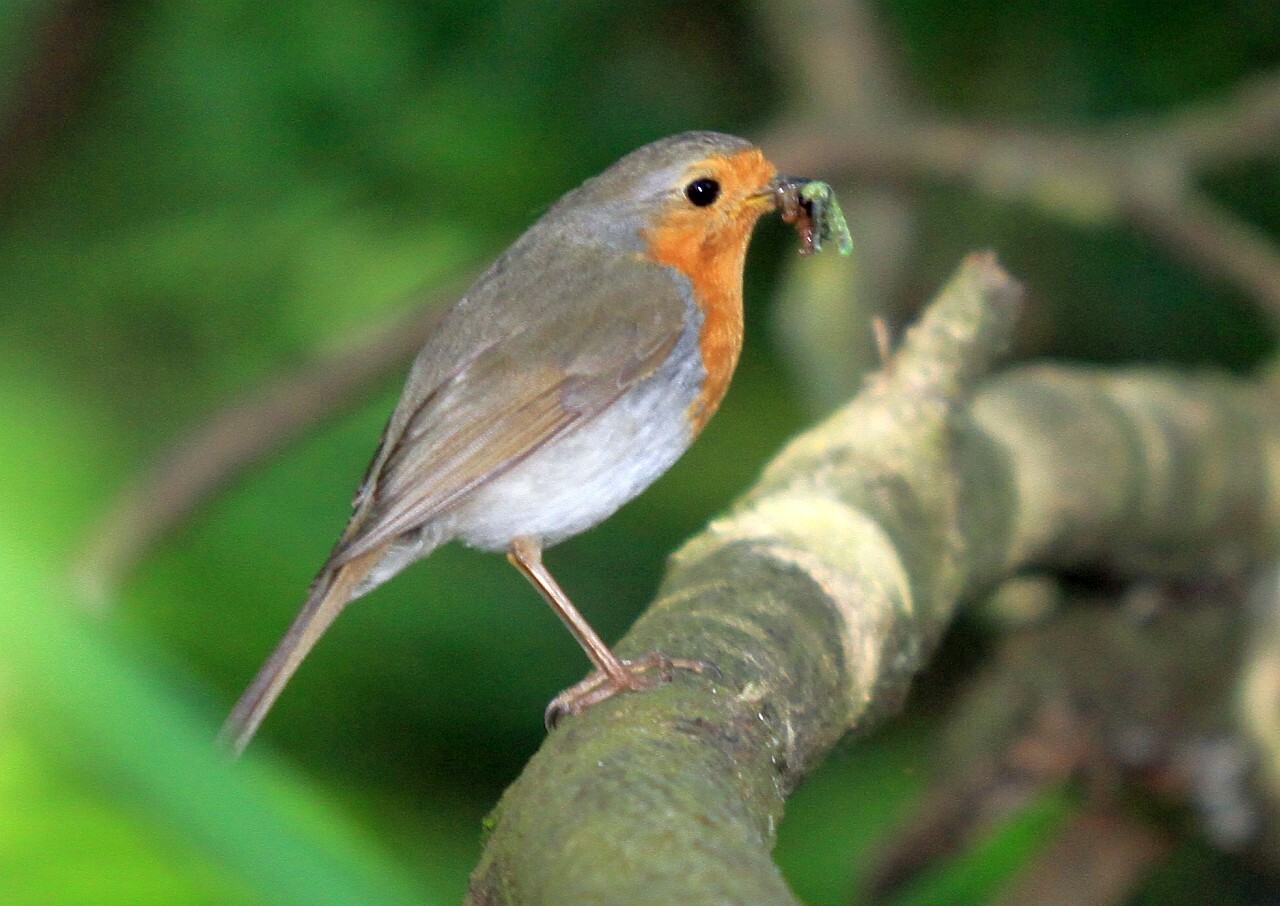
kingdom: Animalia
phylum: Chordata
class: Aves
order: Passeriformes
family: Muscicapidae
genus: Erithacus
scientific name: Erithacus rubecula
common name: European robin
